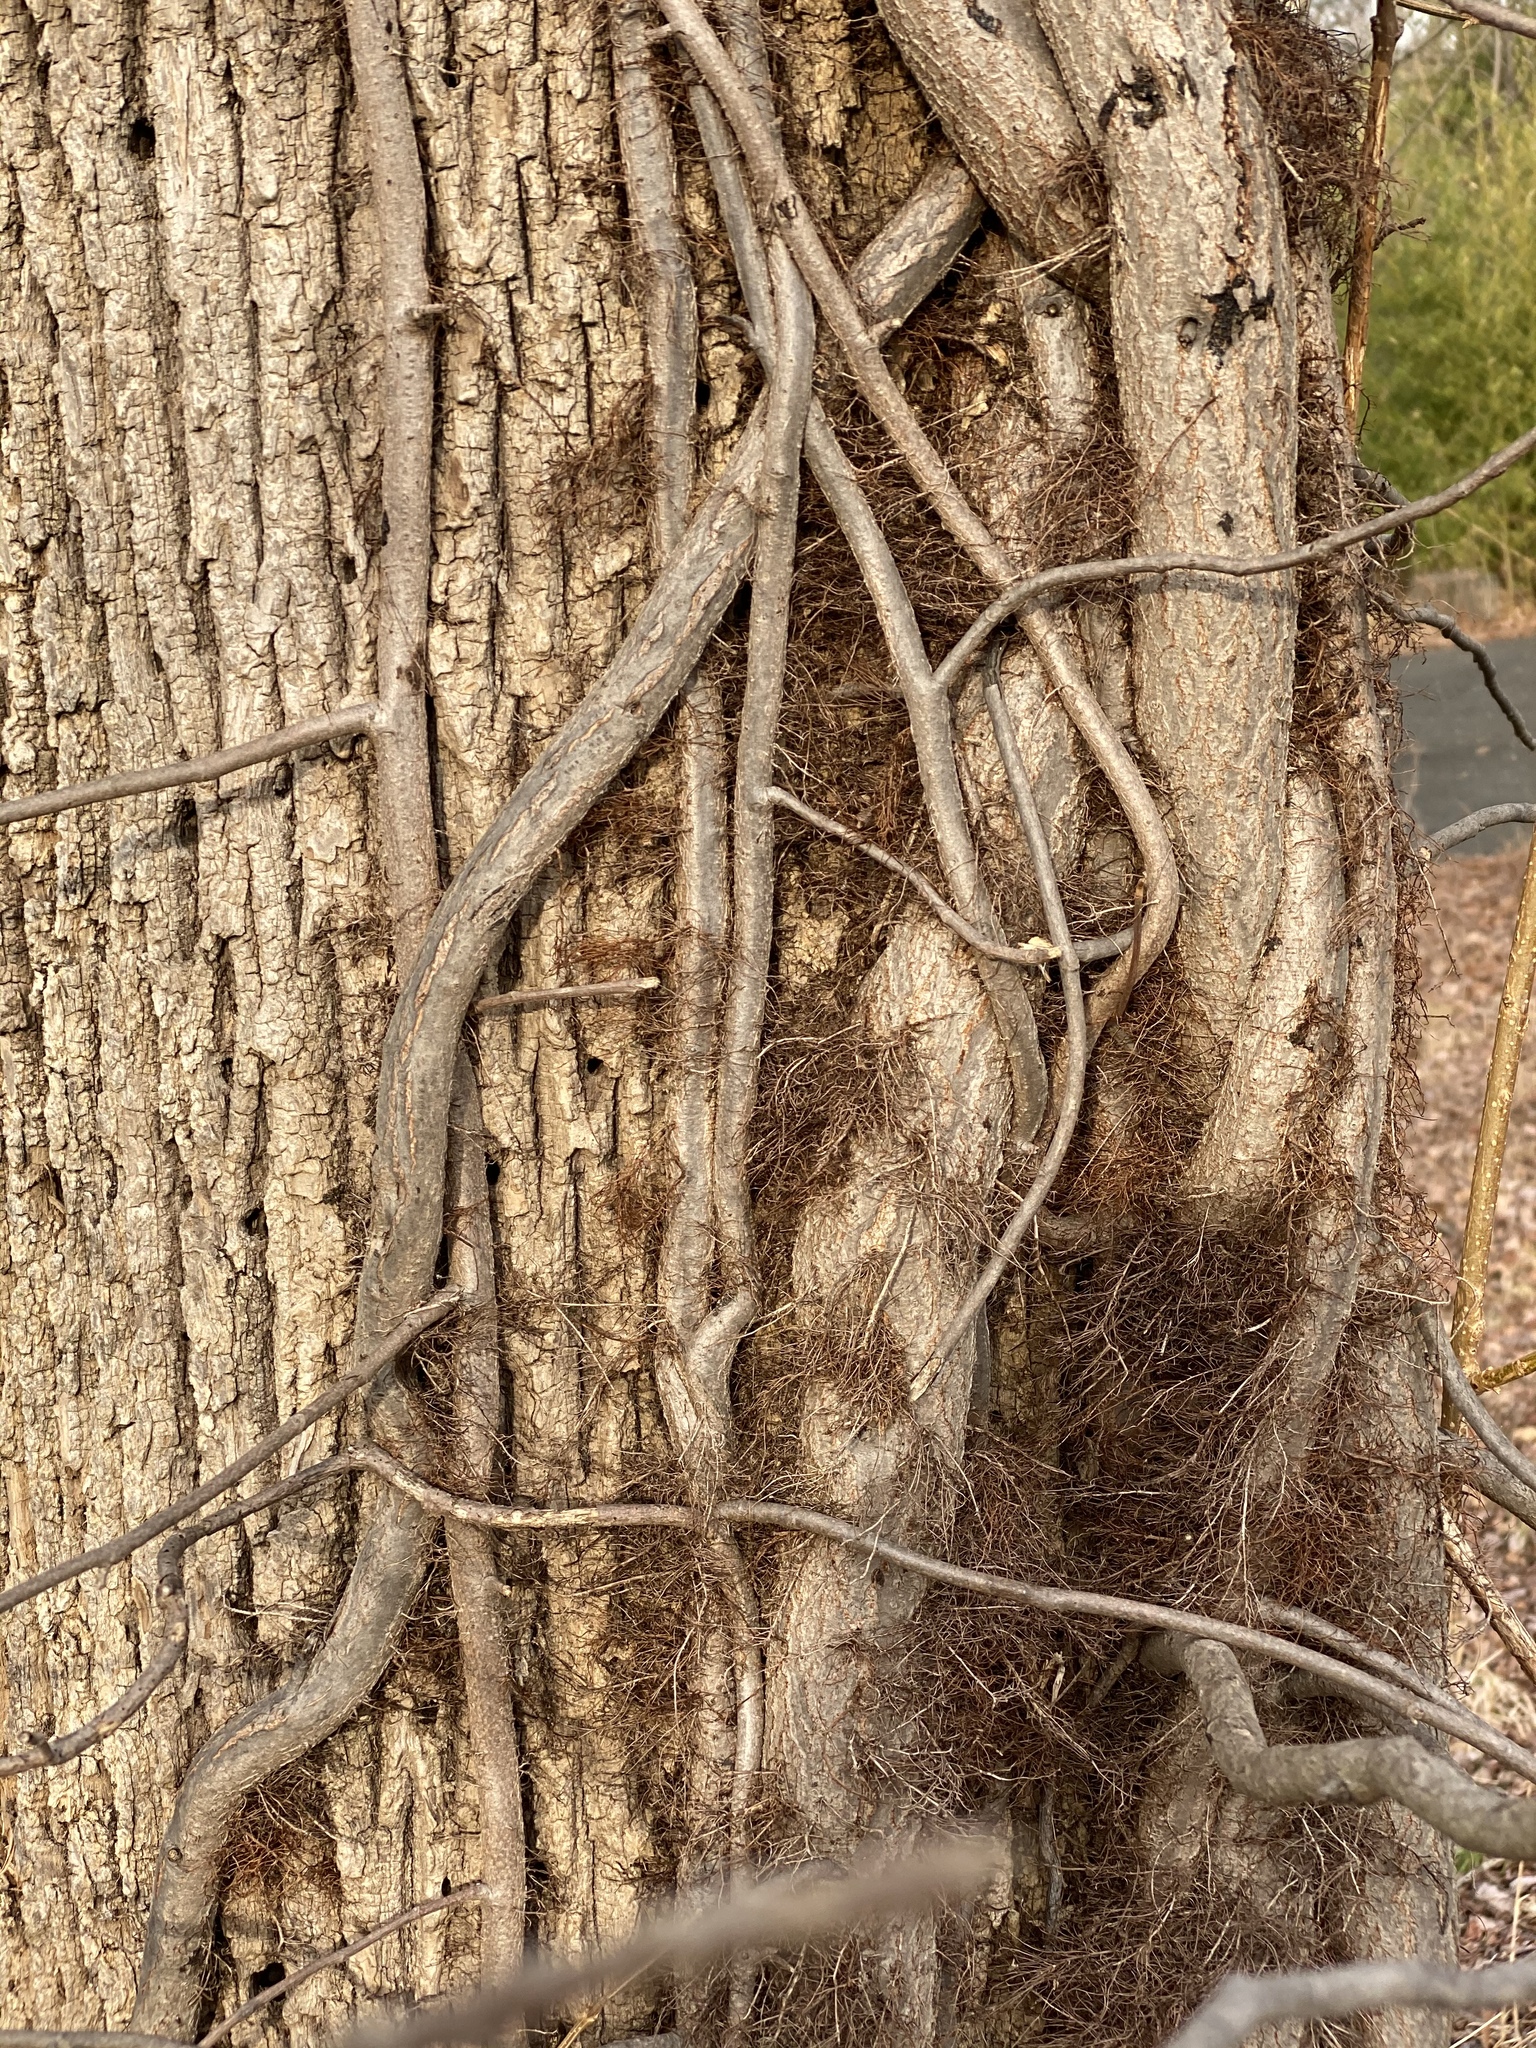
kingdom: Plantae
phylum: Tracheophyta
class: Magnoliopsida
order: Sapindales
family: Anacardiaceae
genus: Toxicodendron
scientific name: Toxicodendron radicans
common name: Poison ivy
